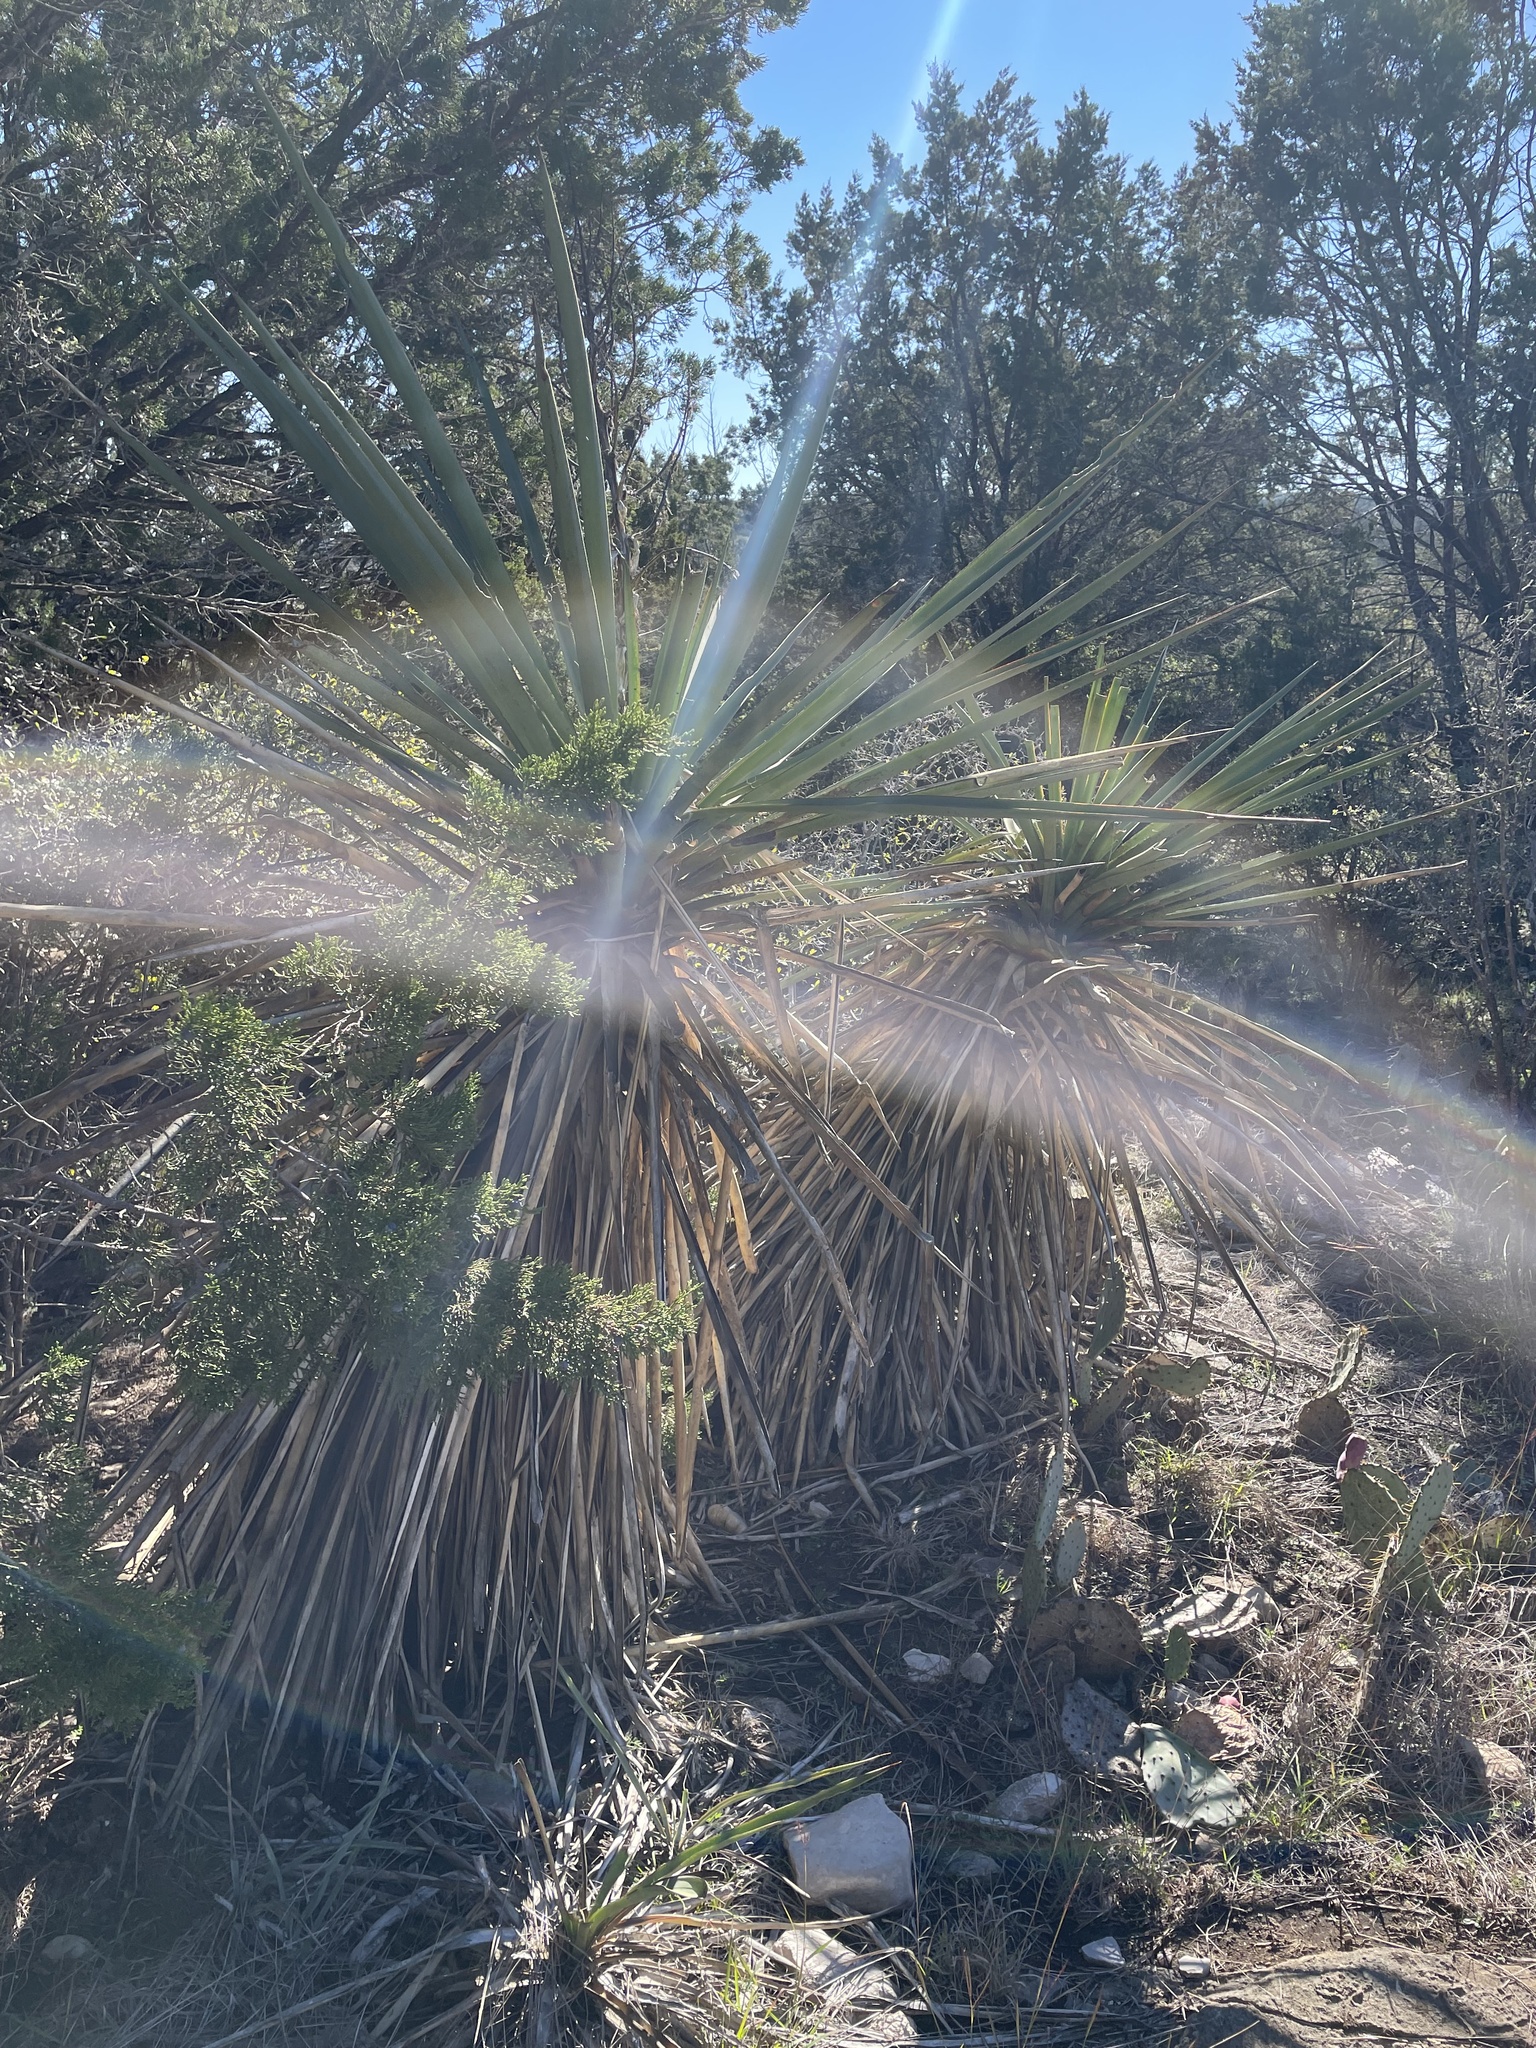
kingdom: Plantae
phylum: Tracheophyta
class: Liliopsida
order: Asparagales
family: Asparagaceae
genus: Yucca
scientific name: Yucca treculiana
